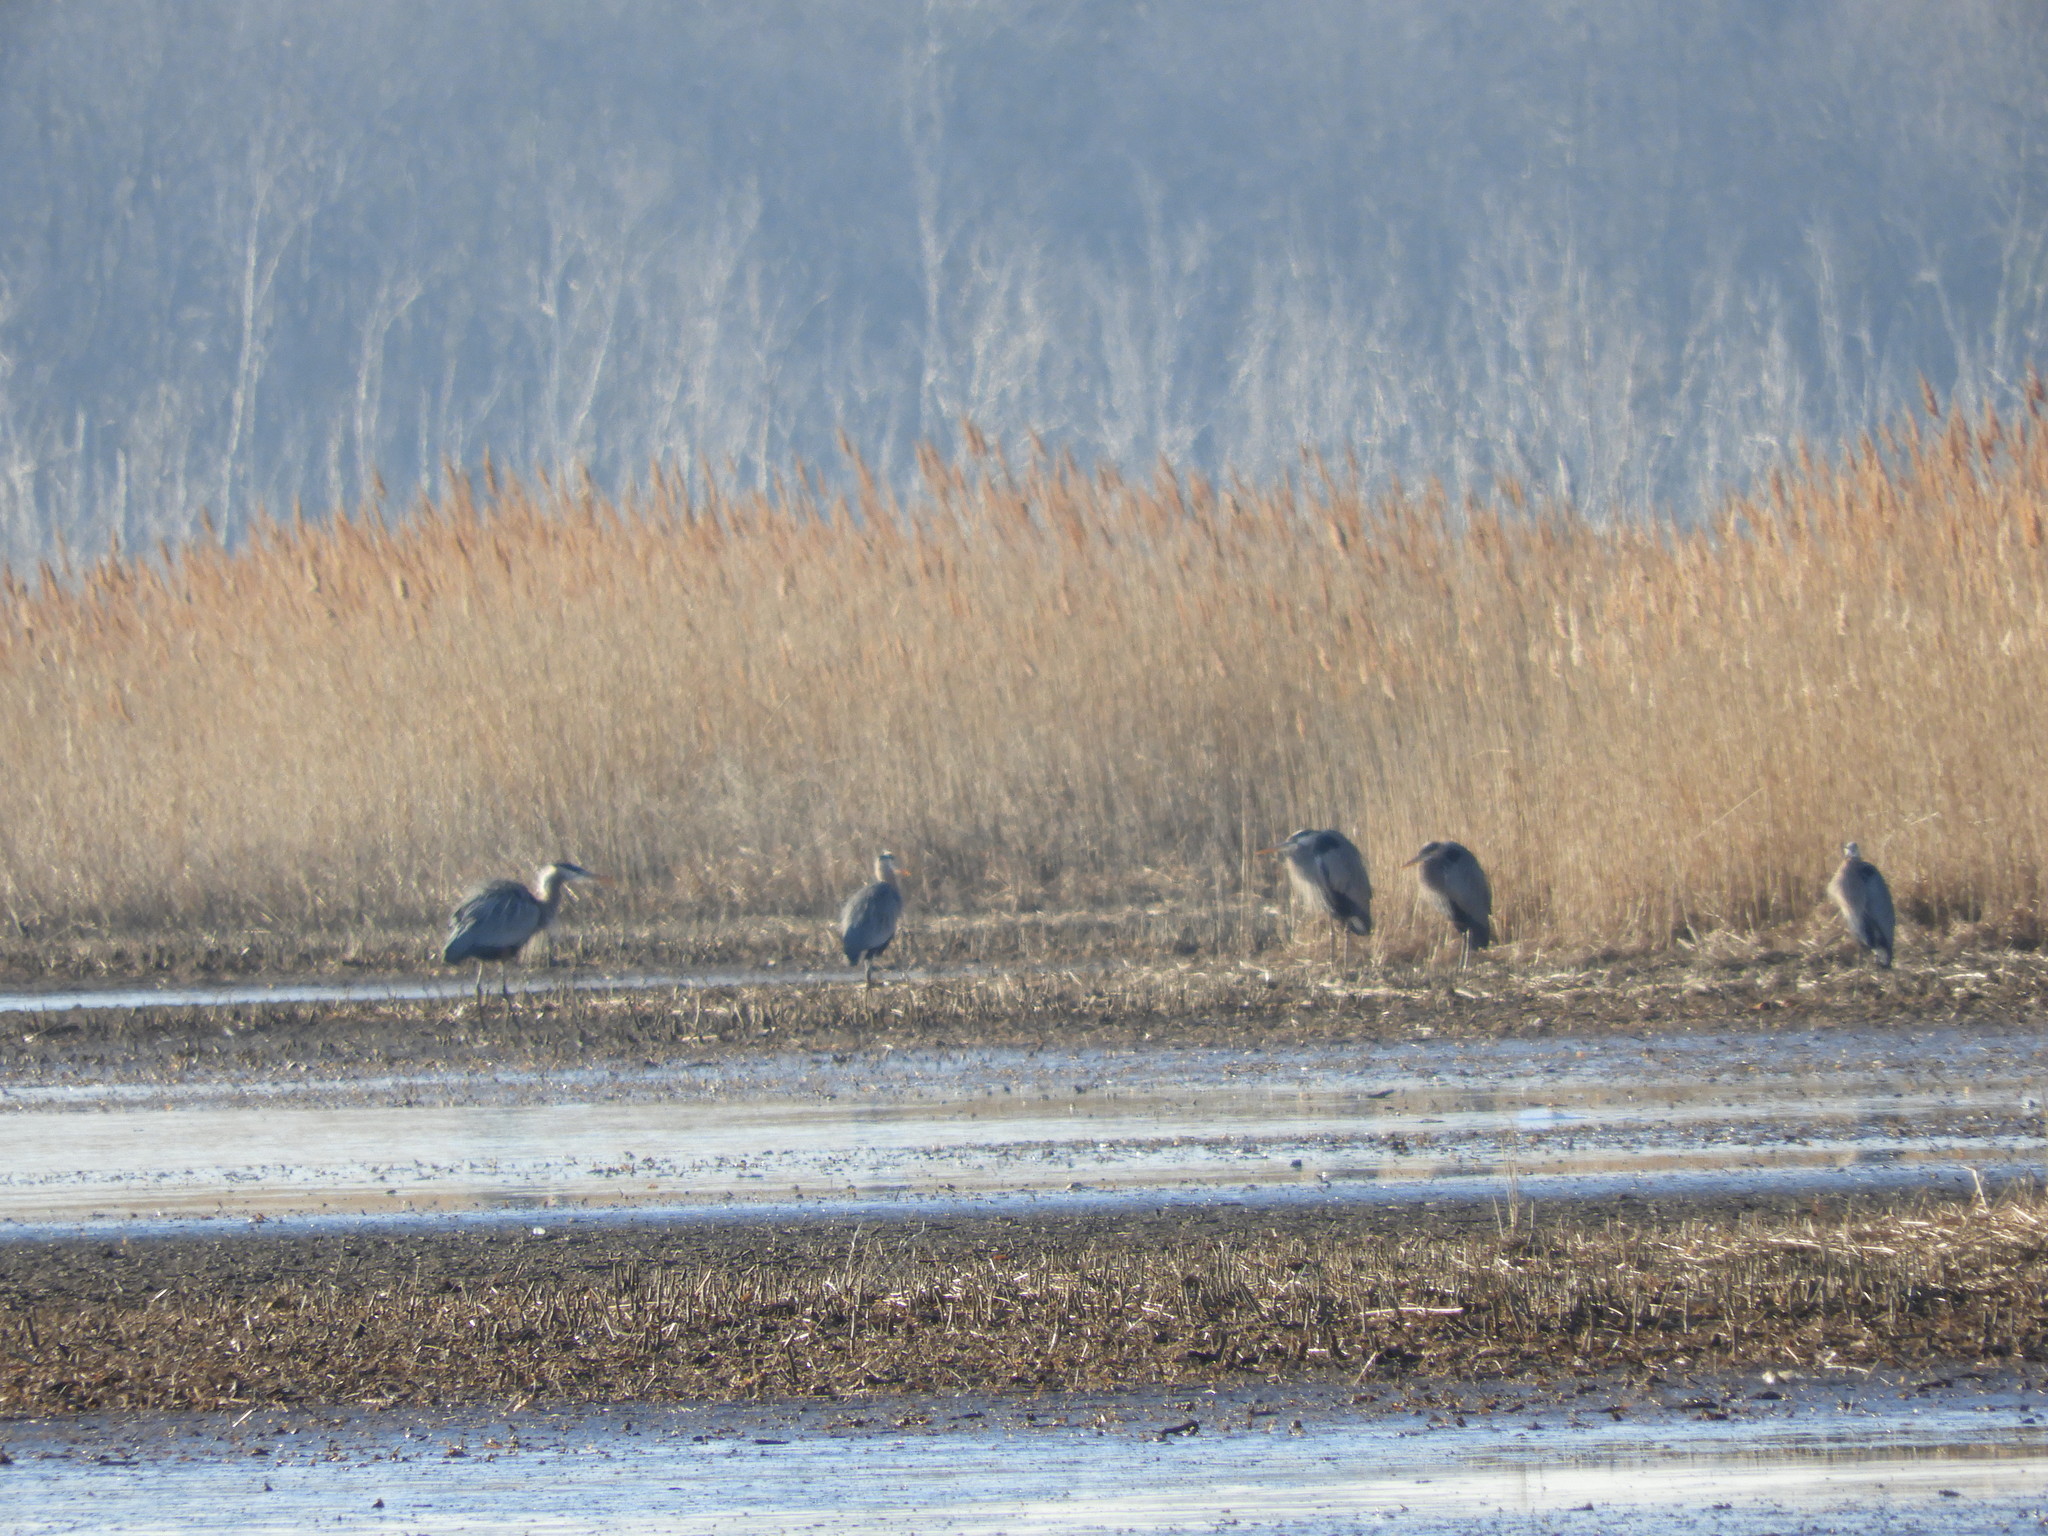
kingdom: Animalia
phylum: Chordata
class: Aves
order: Pelecaniformes
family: Ardeidae
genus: Ardea
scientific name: Ardea herodias
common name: Great blue heron
